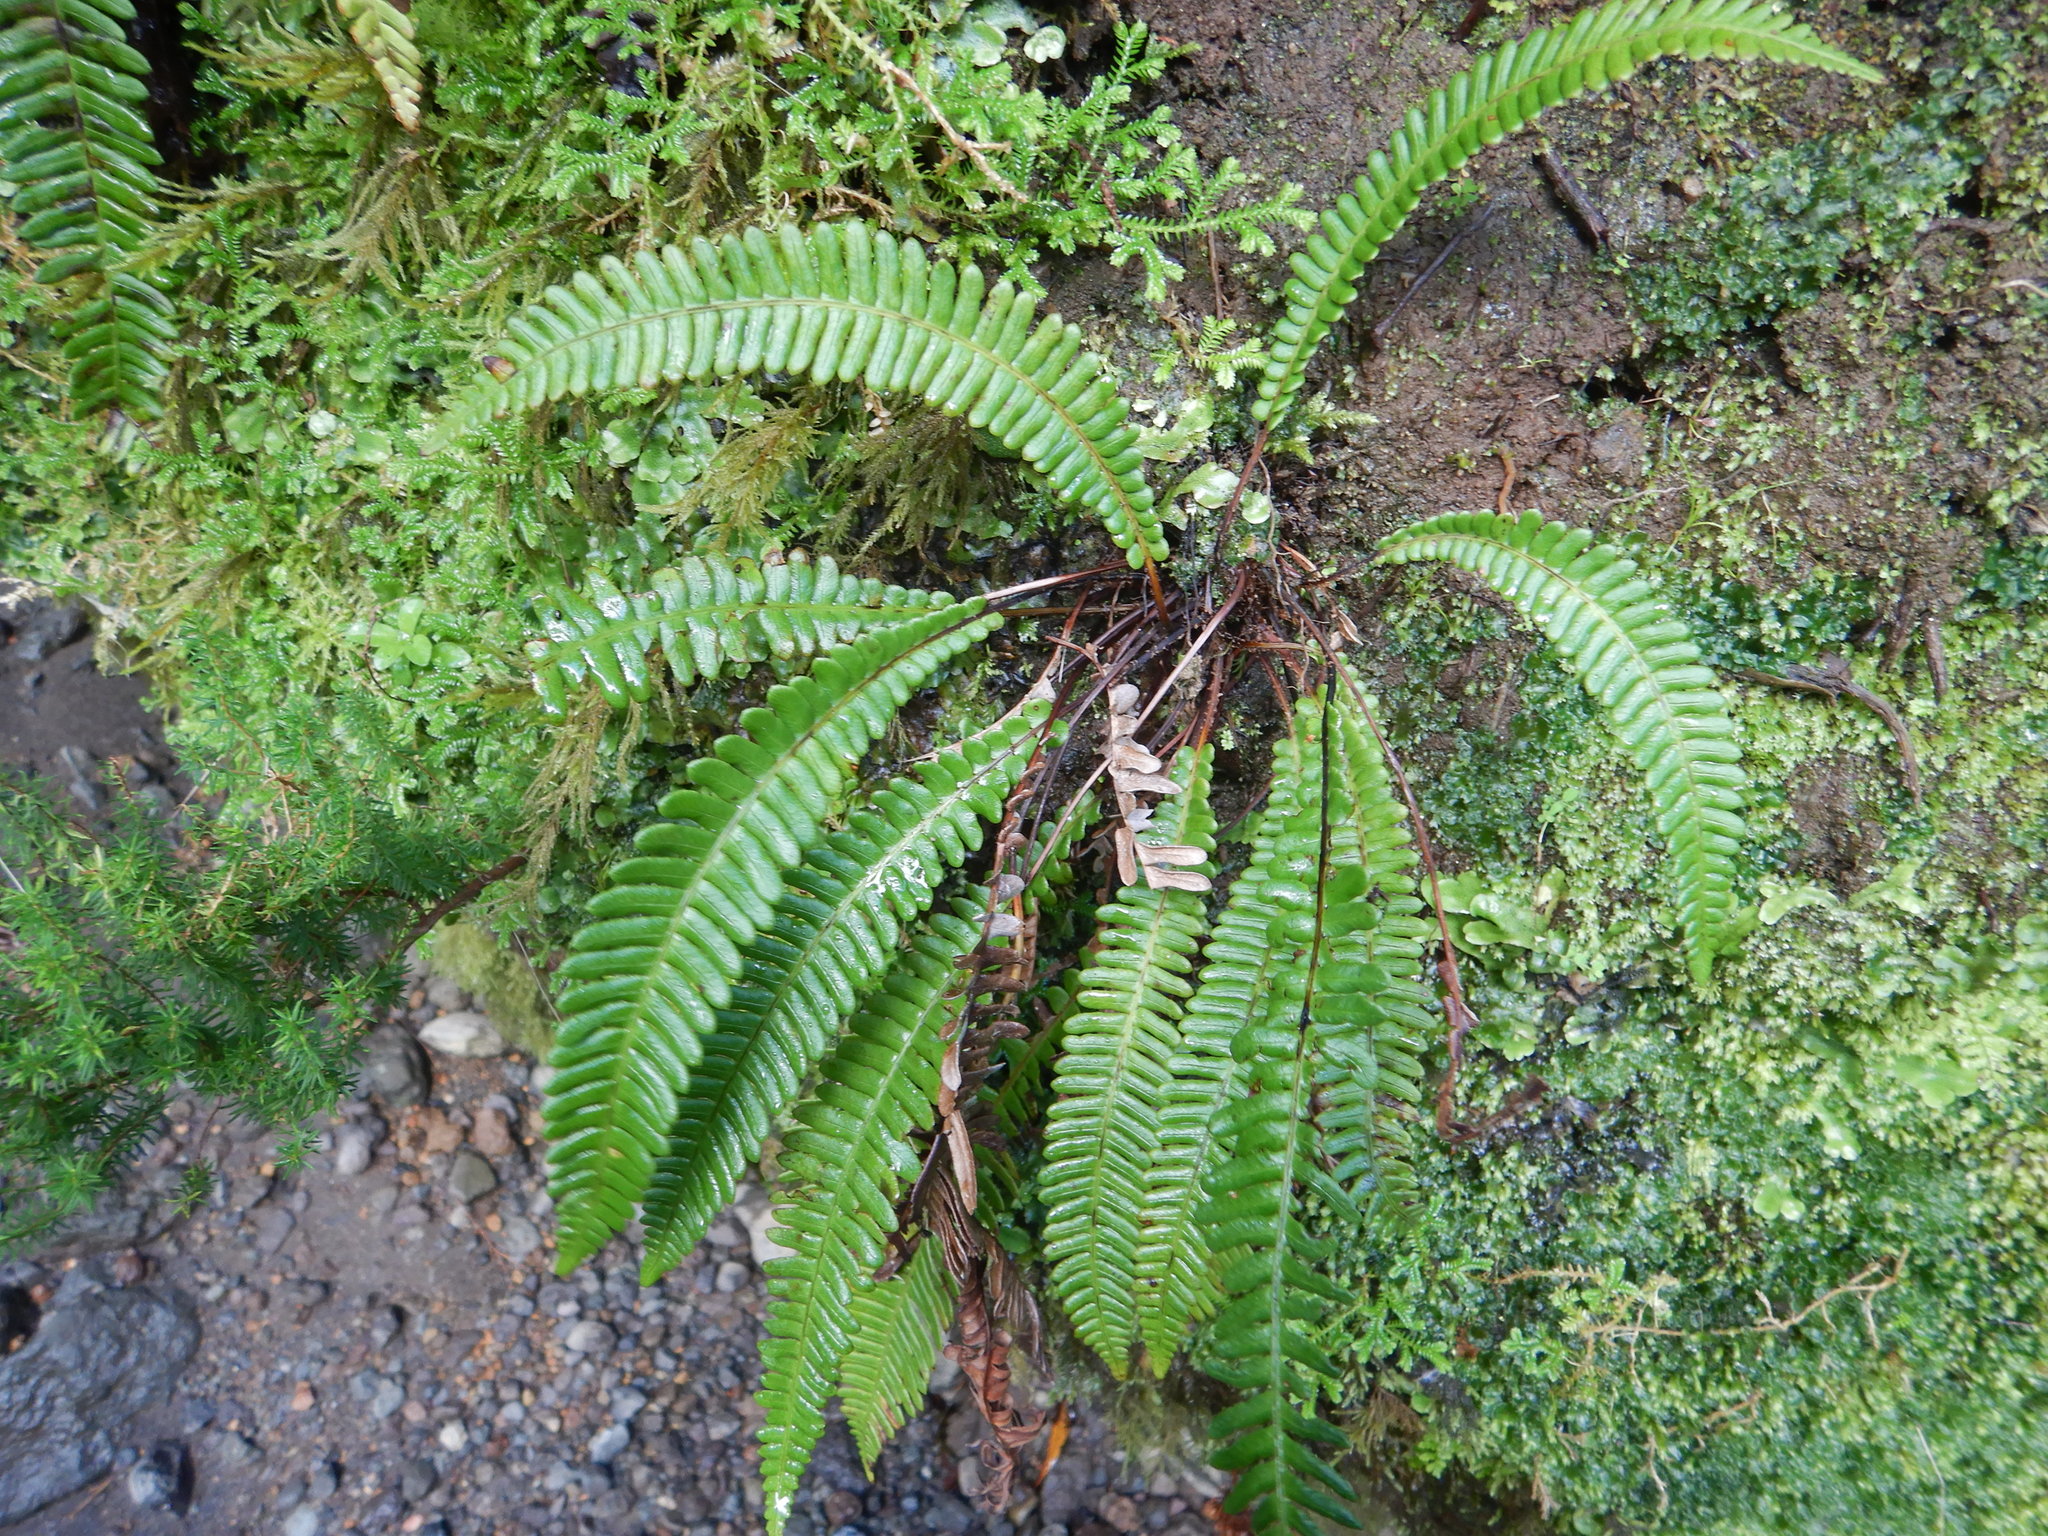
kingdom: Plantae
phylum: Tracheophyta
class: Polypodiopsida
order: Polypodiales
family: Blechnaceae
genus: Struthiopteris
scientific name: Struthiopteris spicant
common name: Deer fern
